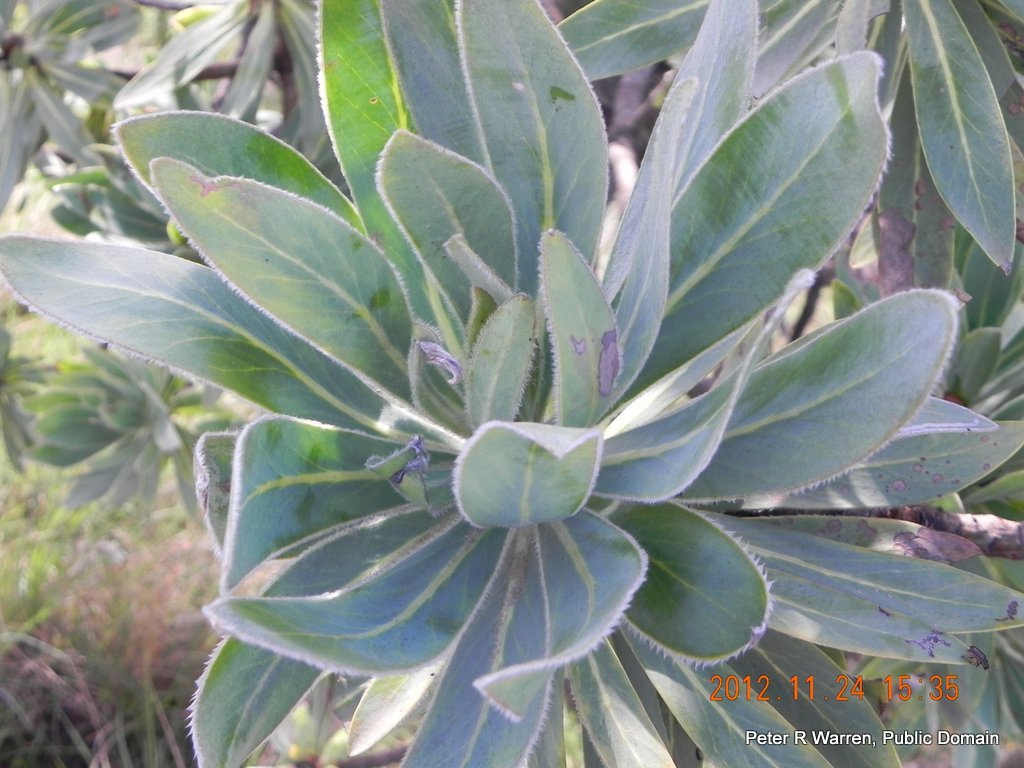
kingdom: Plantae
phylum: Tracheophyta
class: Magnoliopsida
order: Proteales
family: Proteaceae
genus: Protea
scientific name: Protea roupelliae
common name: Silver sugarbush
